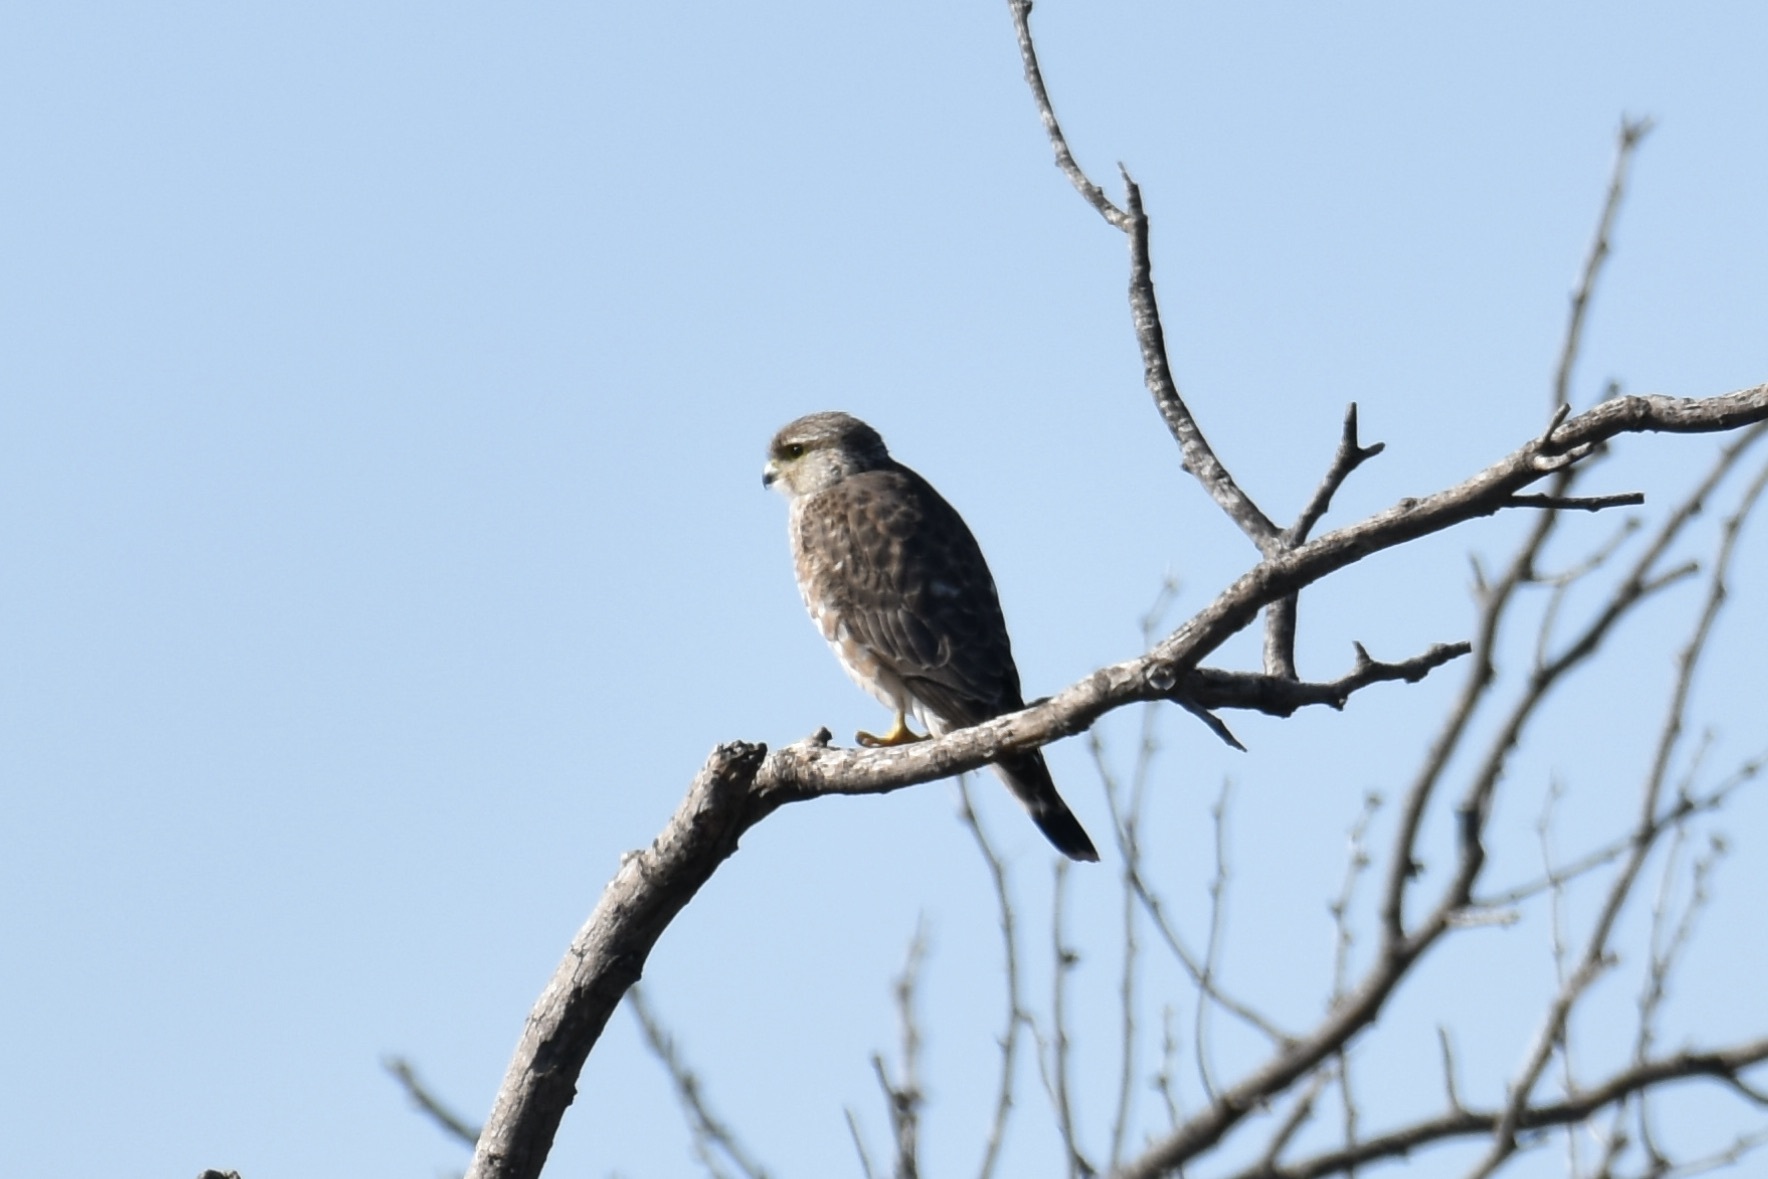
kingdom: Animalia
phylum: Chordata
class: Aves
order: Falconiformes
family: Falconidae
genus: Falco
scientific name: Falco columbarius
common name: Merlin
